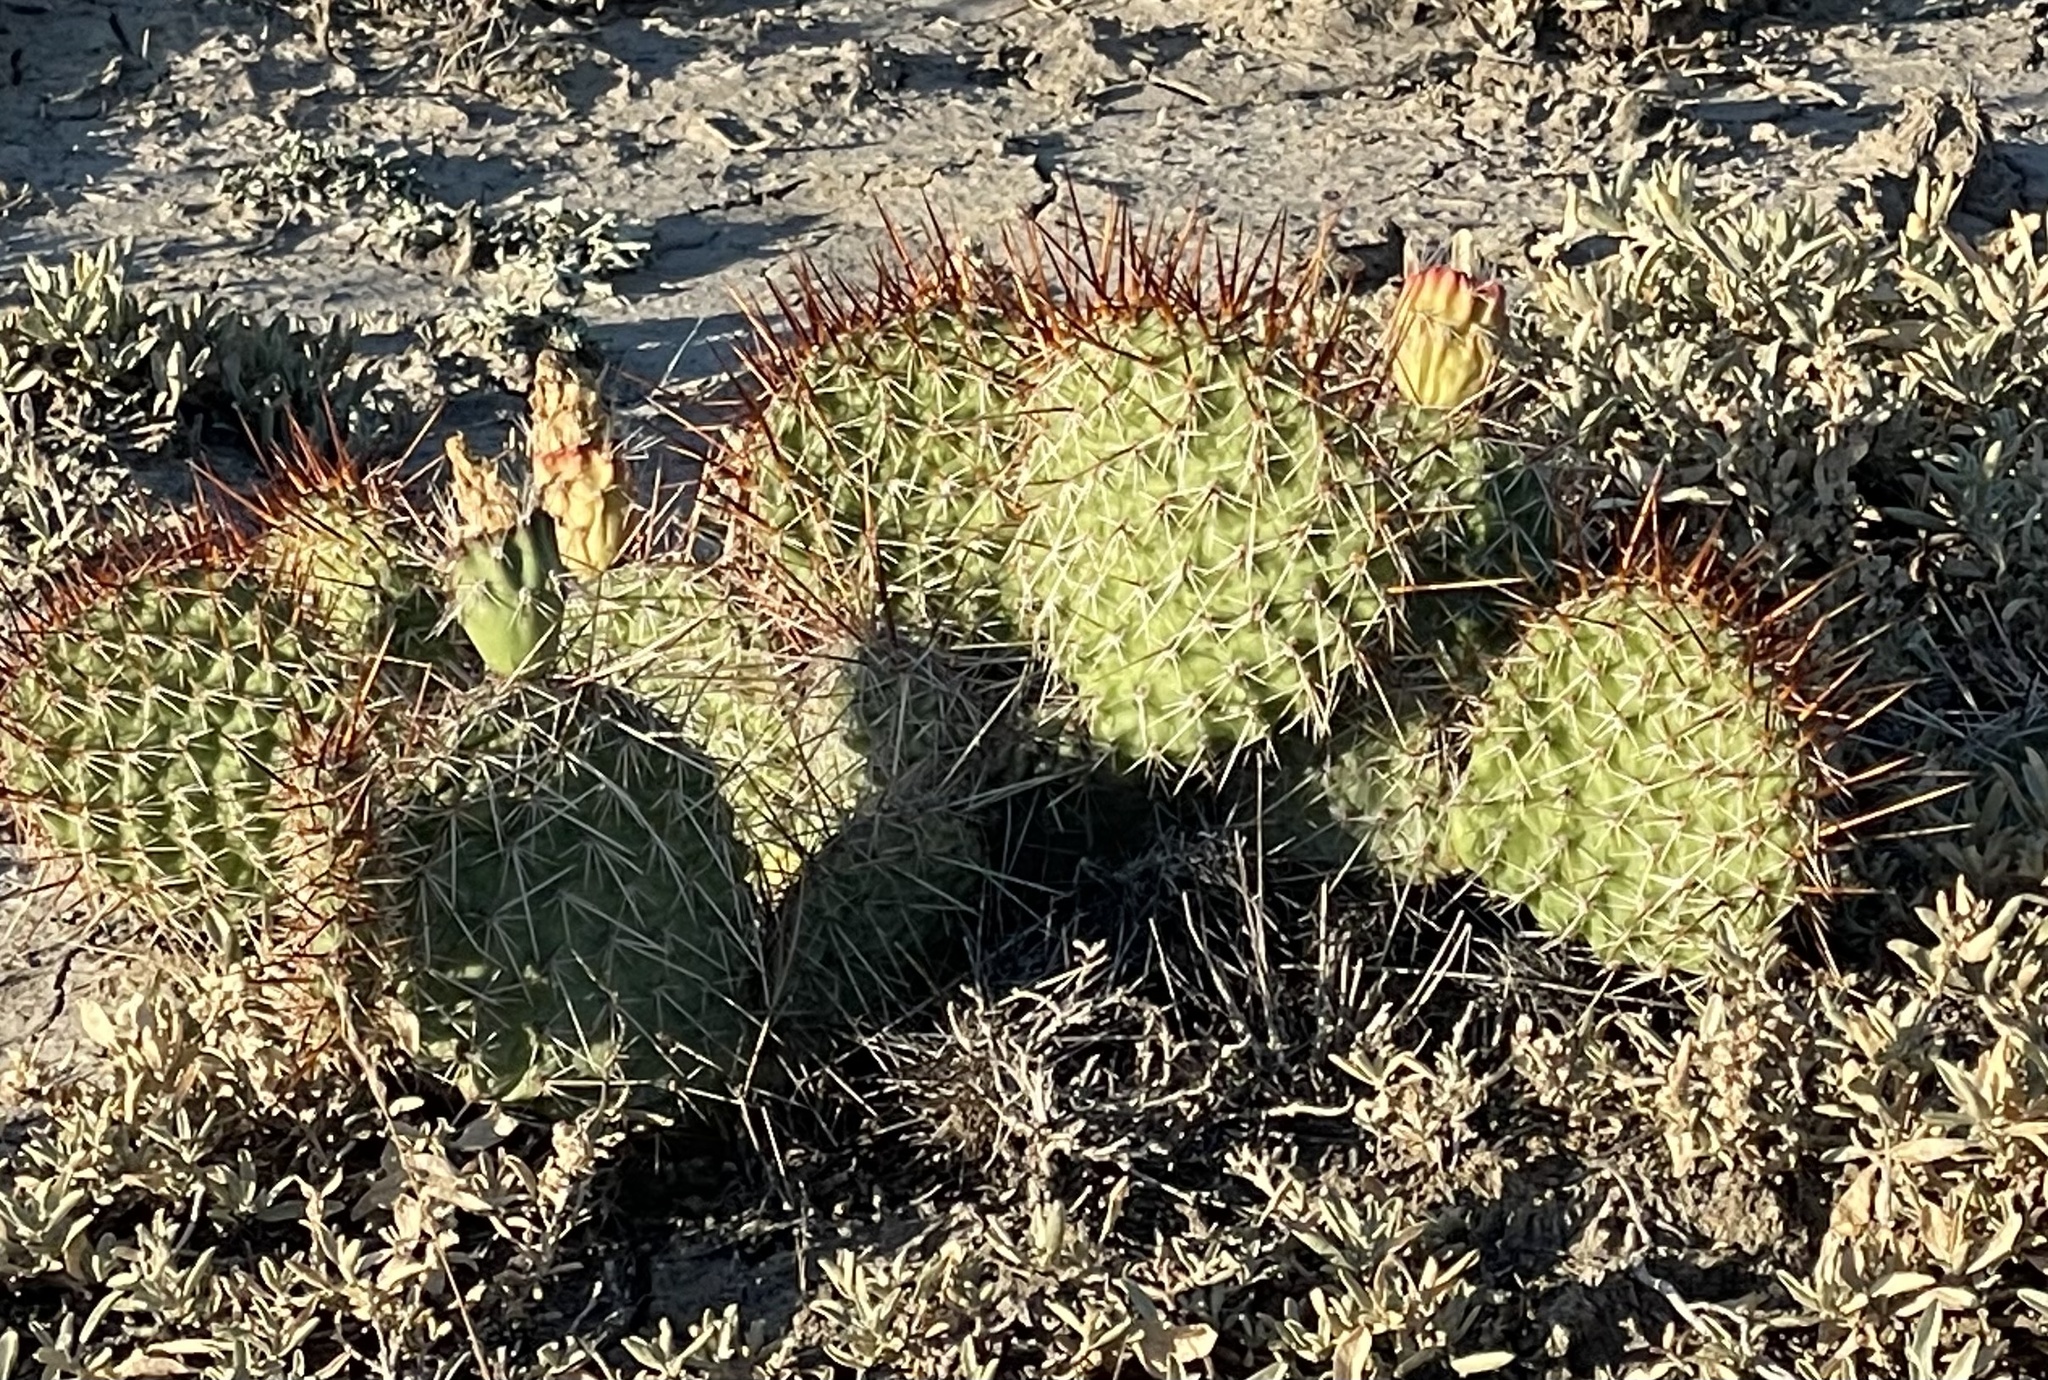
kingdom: Plantae
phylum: Tracheophyta
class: Magnoliopsida
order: Caryophyllales
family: Cactaceae
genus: Opuntia
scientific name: Opuntia polyacantha
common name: Plains prickly-pear
